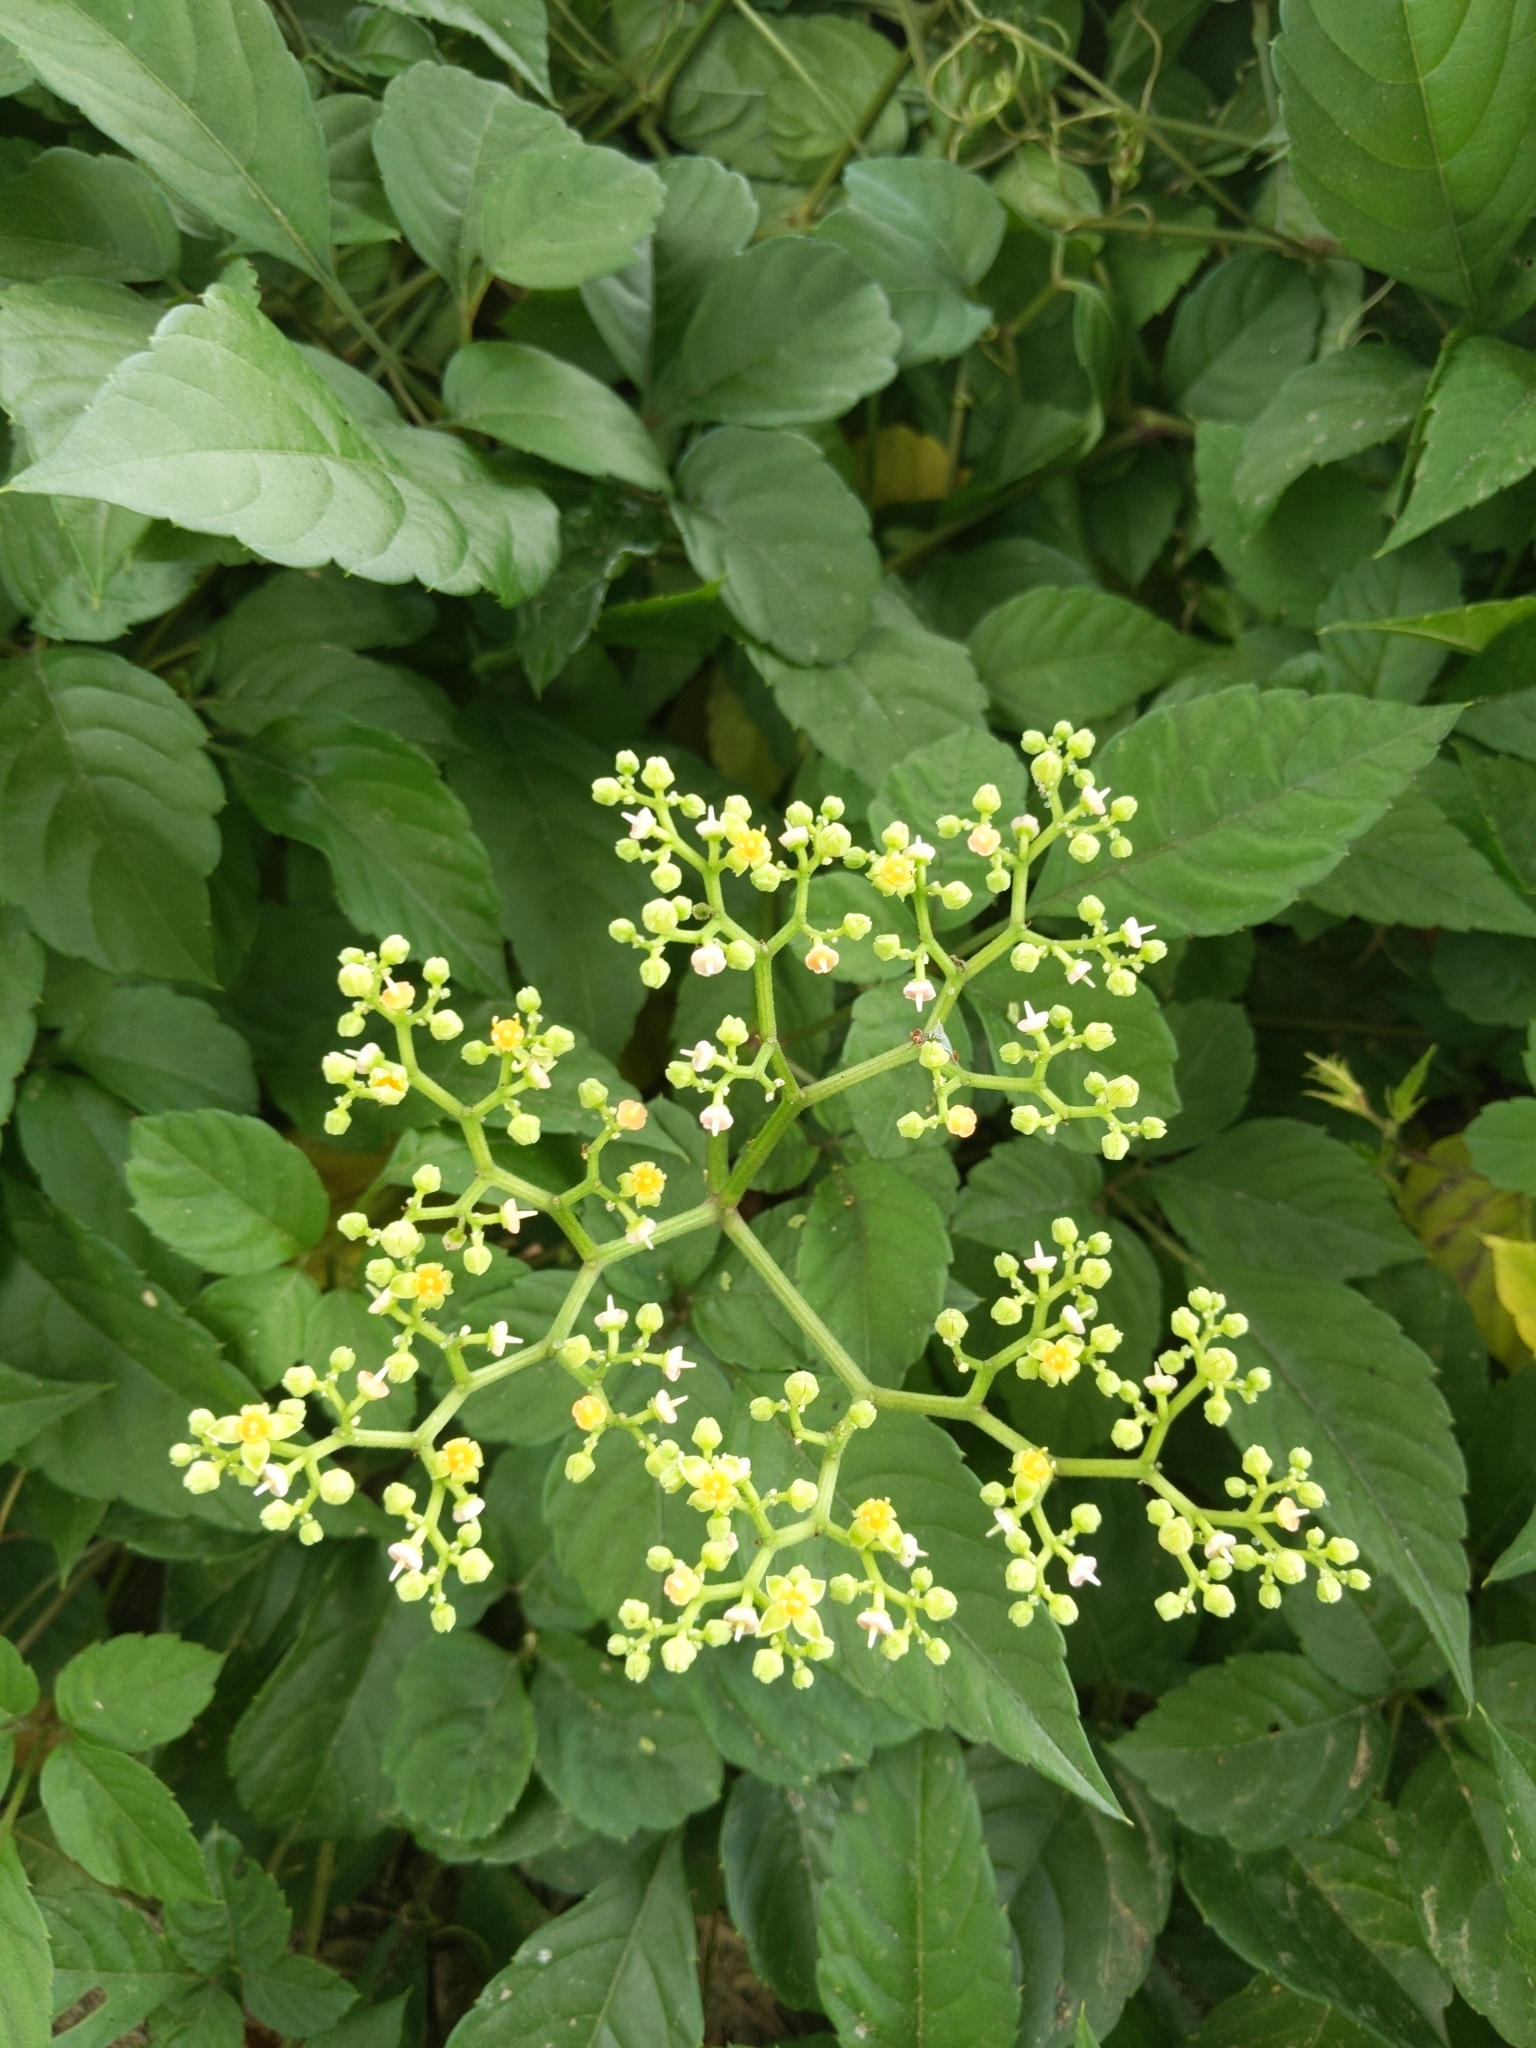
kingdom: Plantae
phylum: Tracheophyta
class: Magnoliopsida
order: Vitales
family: Vitaceae
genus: Causonis
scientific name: Causonis japonica
